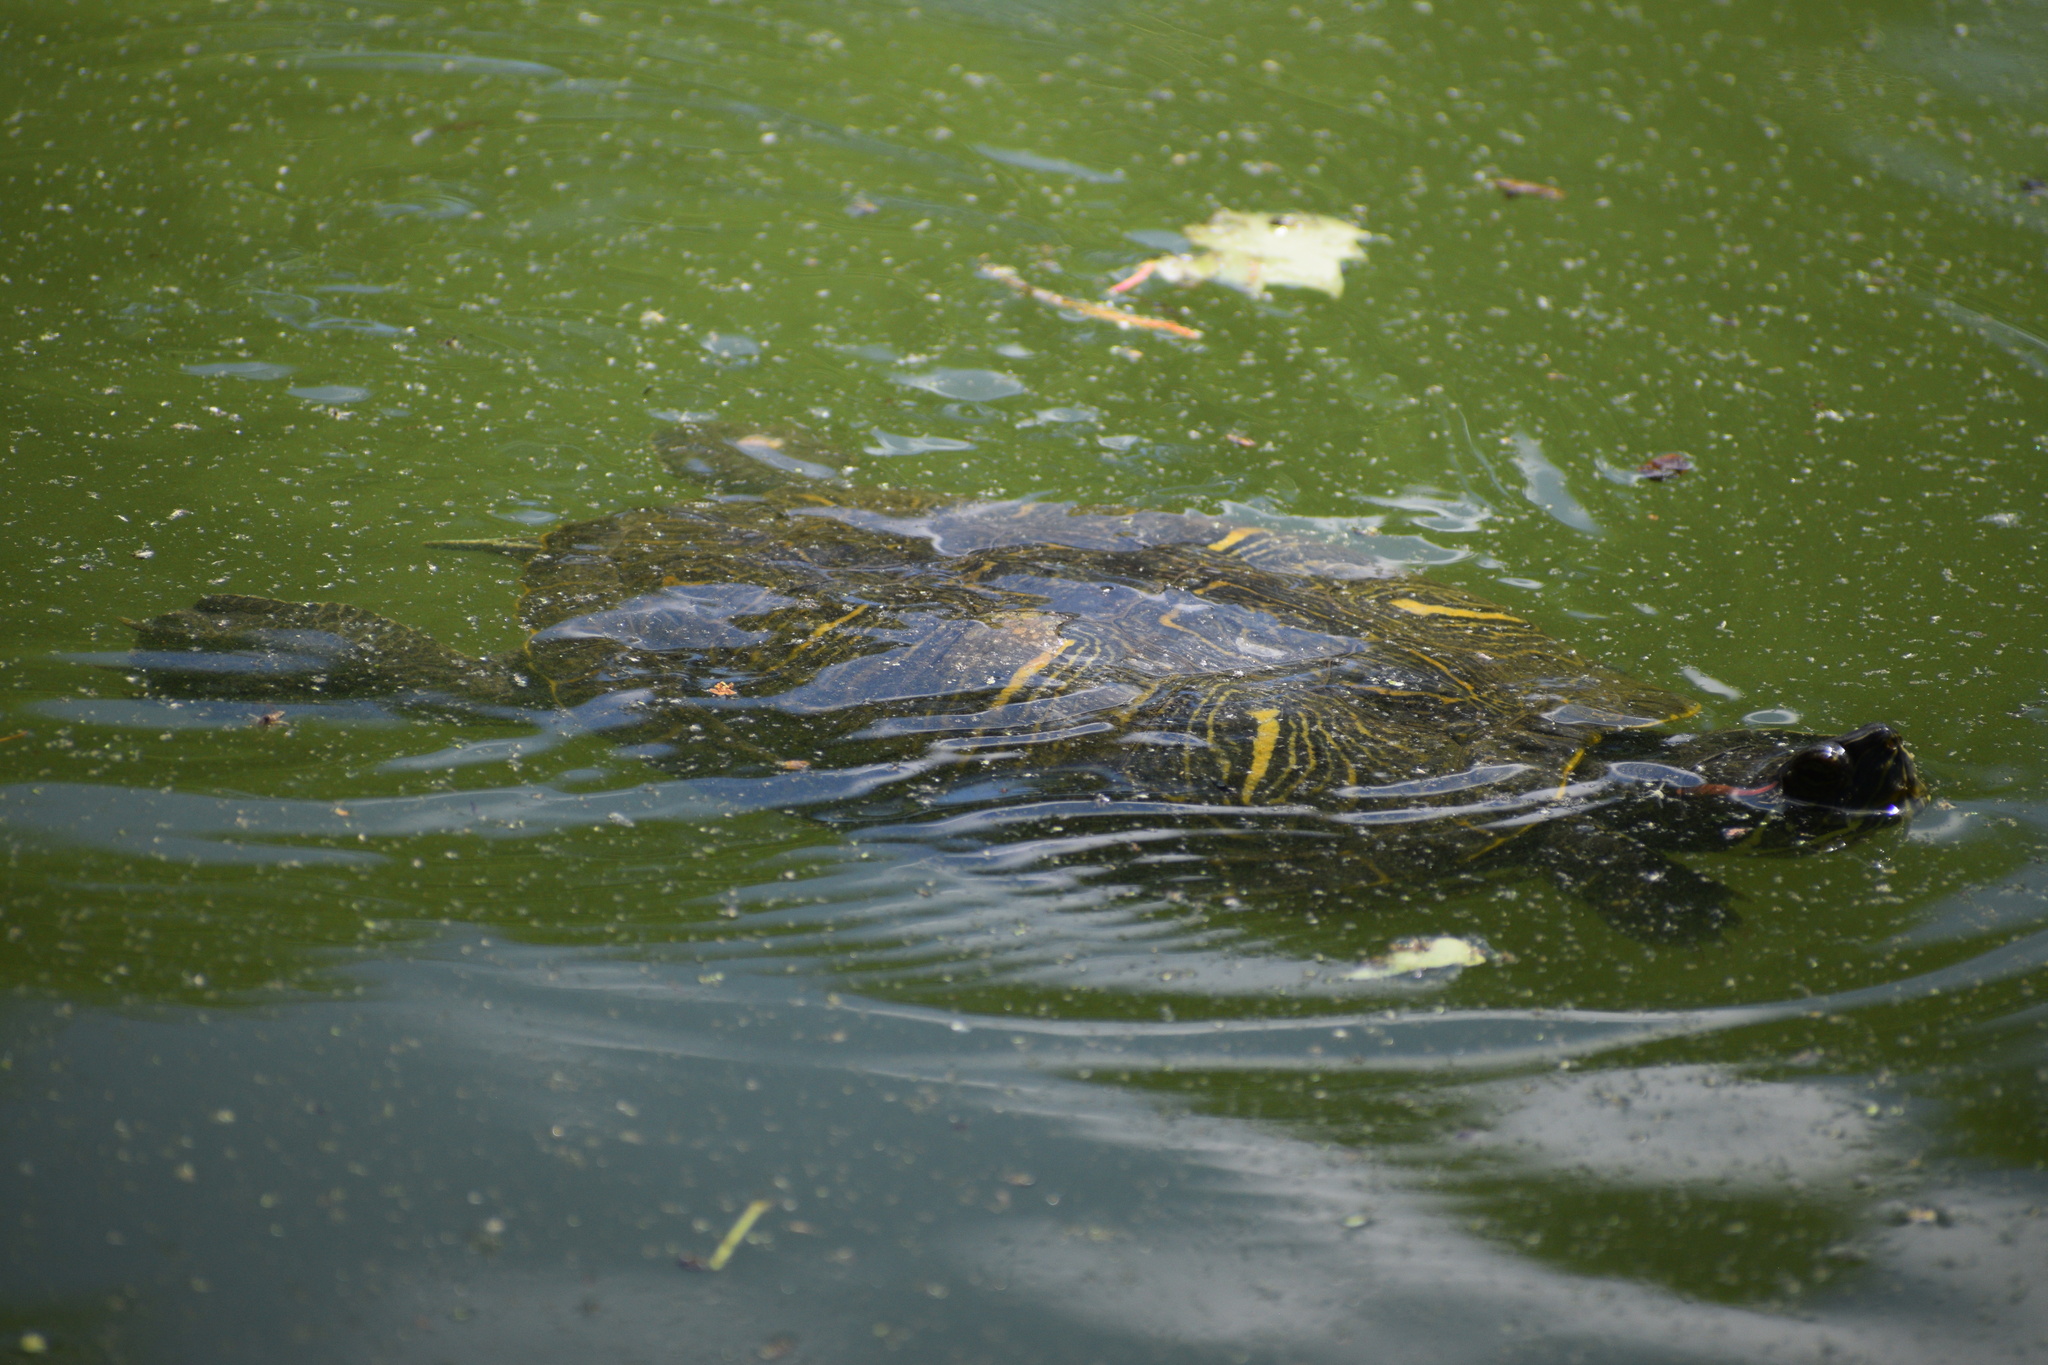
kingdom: Animalia
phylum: Chordata
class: Testudines
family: Emydidae
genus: Trachemys
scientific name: Trachemys scripta
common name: Slider
